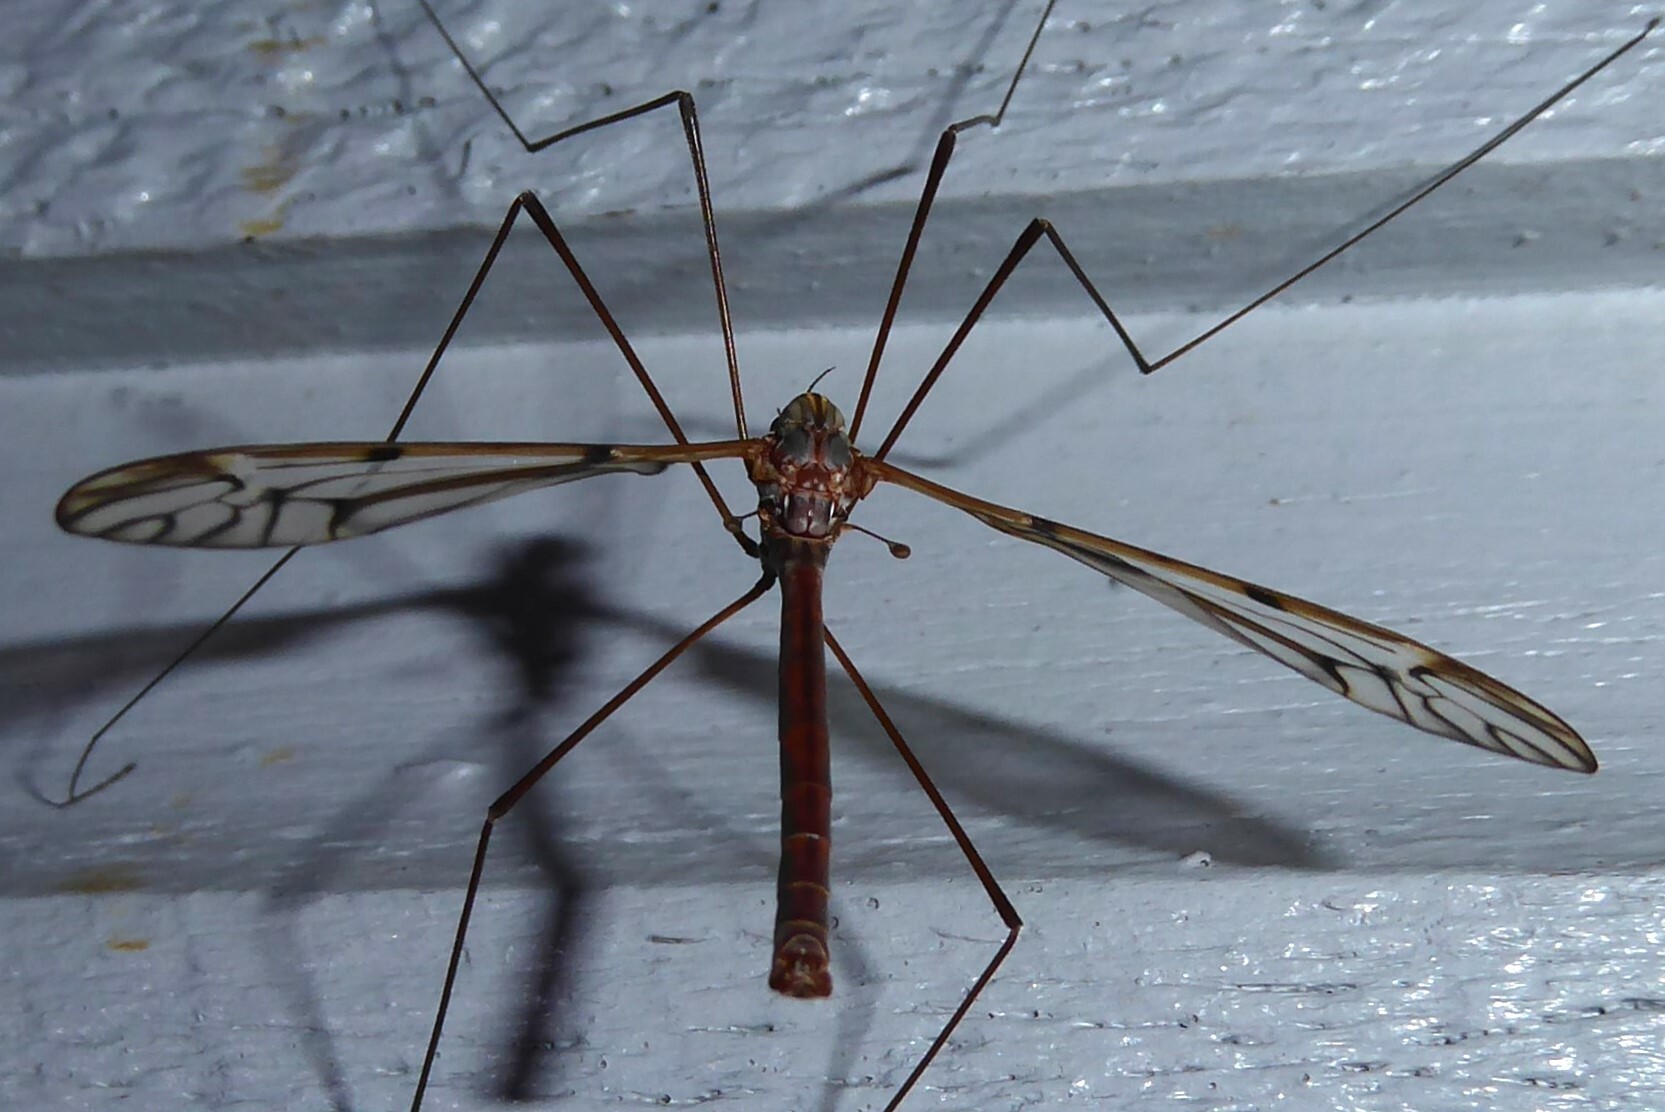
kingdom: Animalia
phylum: Arthropoda
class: Insecta
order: Diptera
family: Tipulidae
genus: Zelandotipula
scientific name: Zelandotipula novarae
